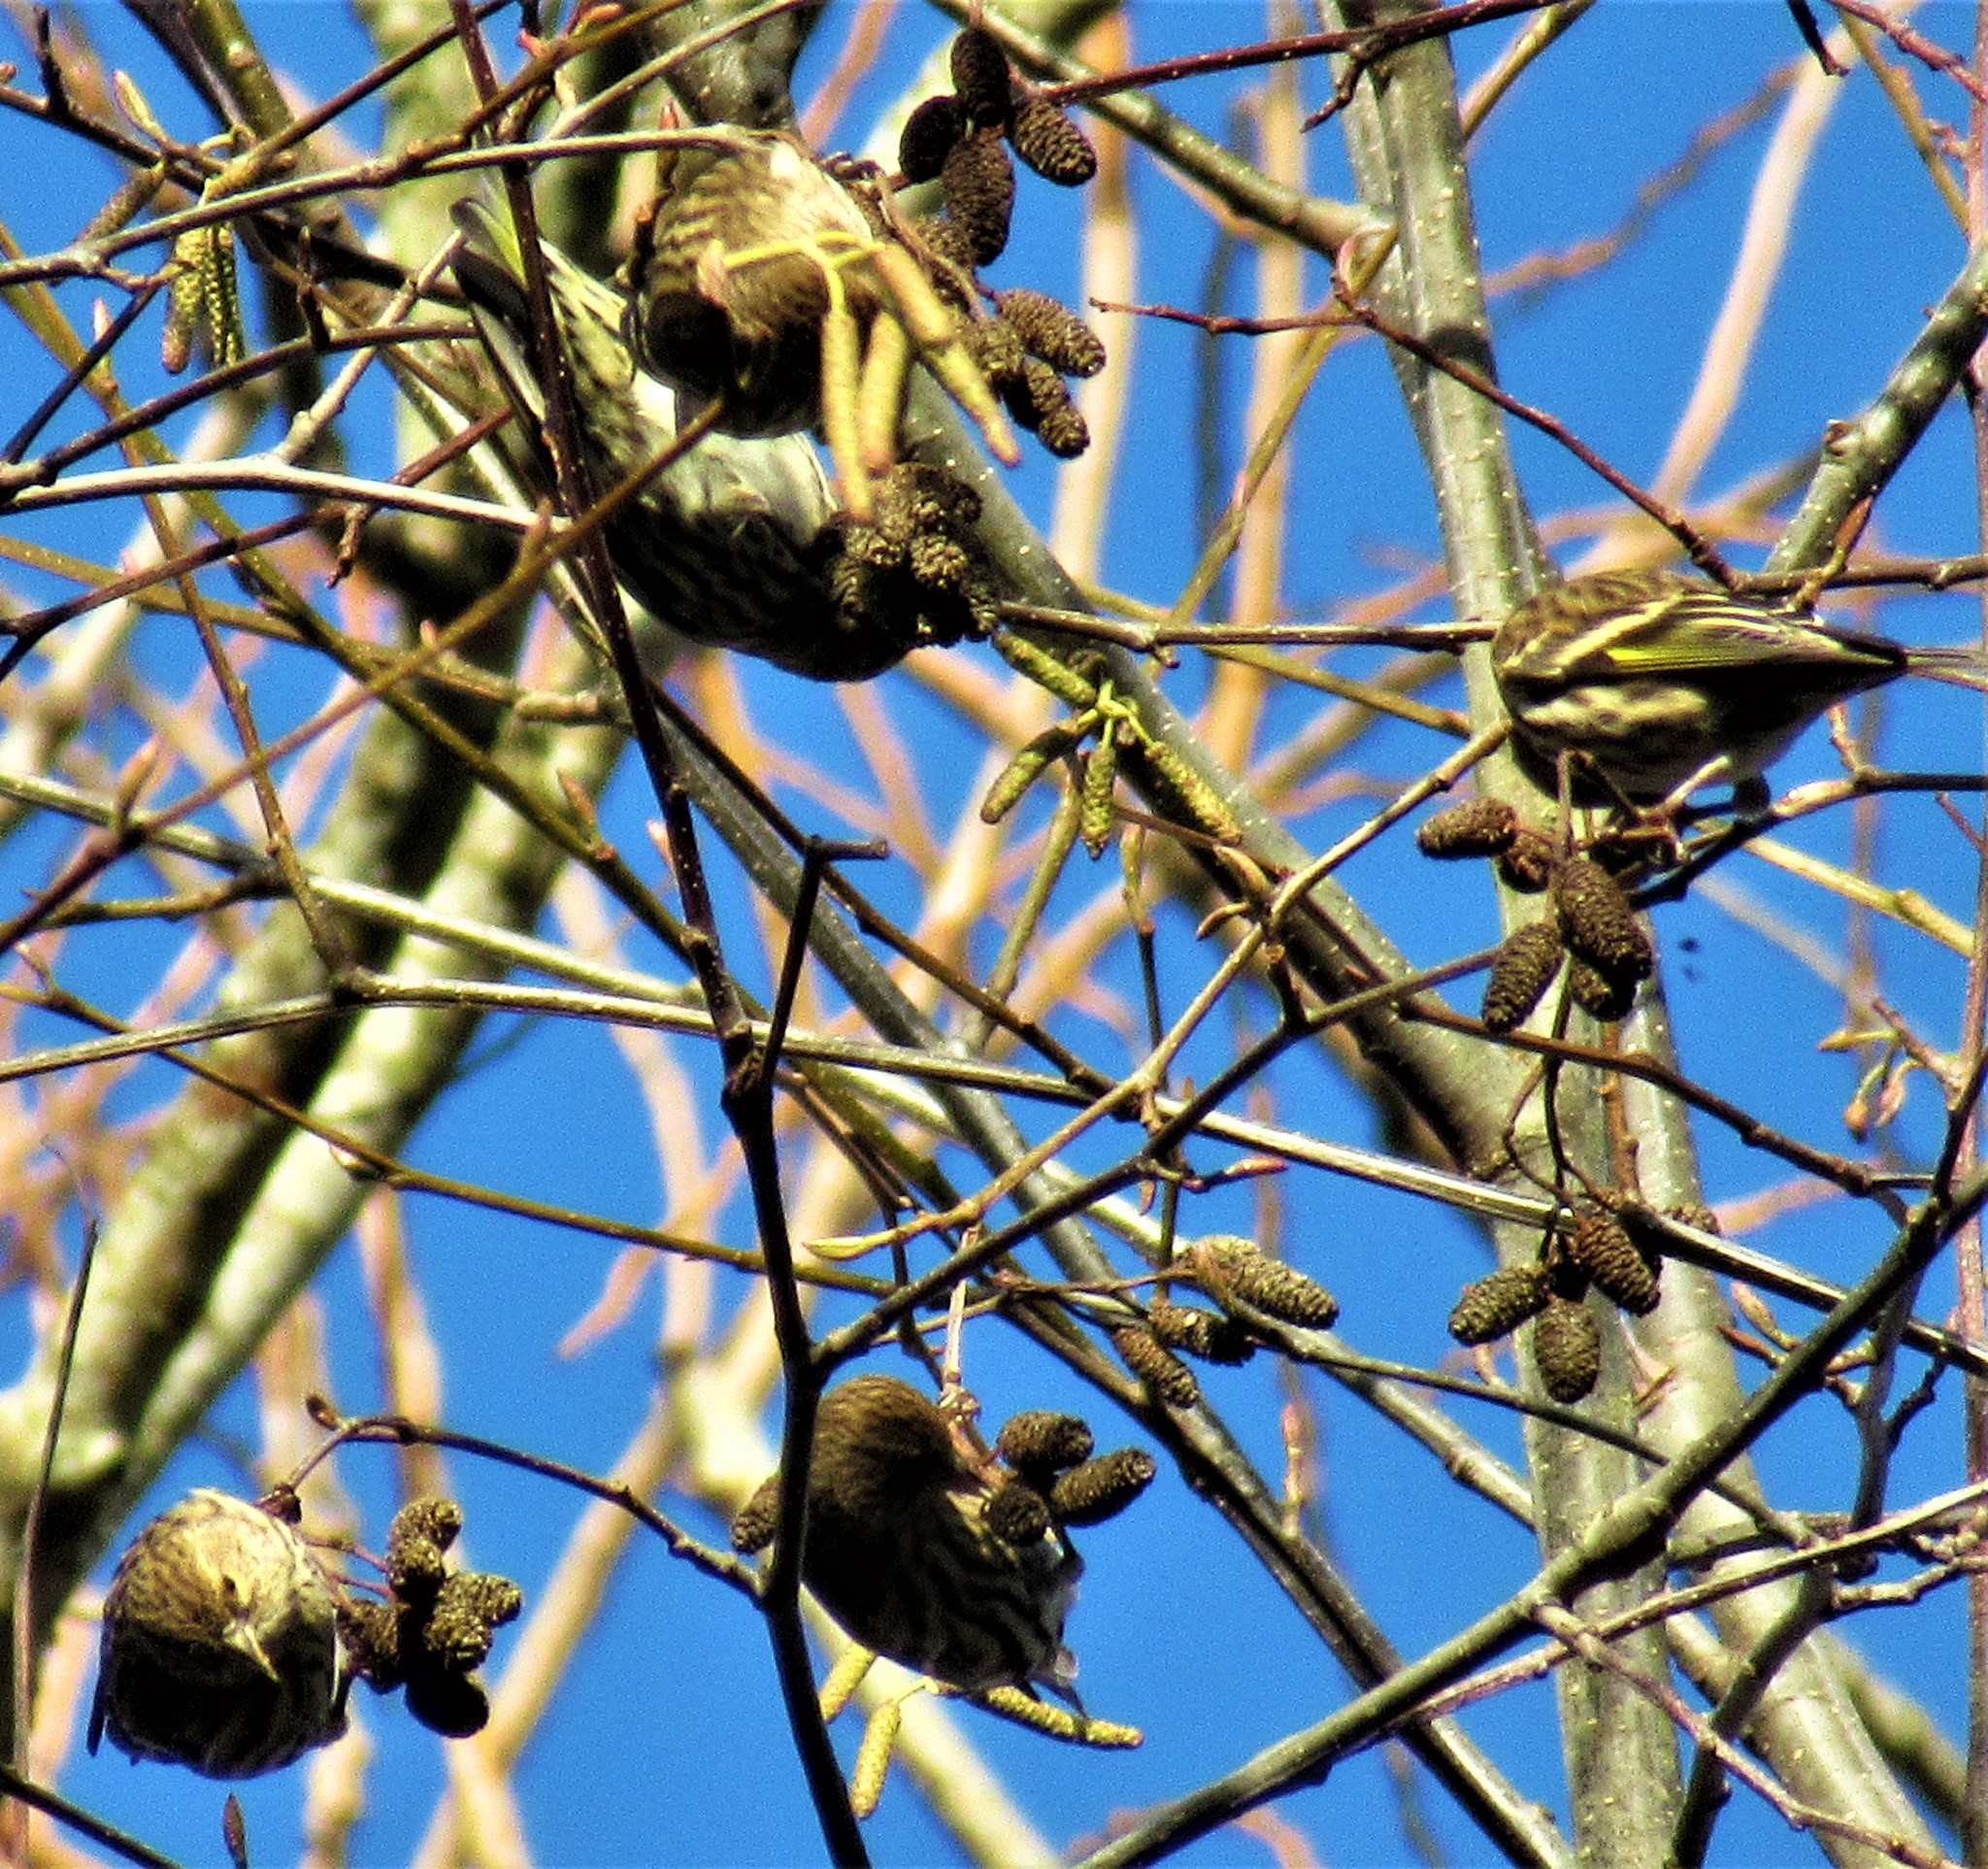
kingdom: Animalia
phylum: Chordata
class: Aves
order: Passeriformes
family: Fringillidae
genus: Spinus
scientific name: Spinus pinus
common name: Pine siskin
